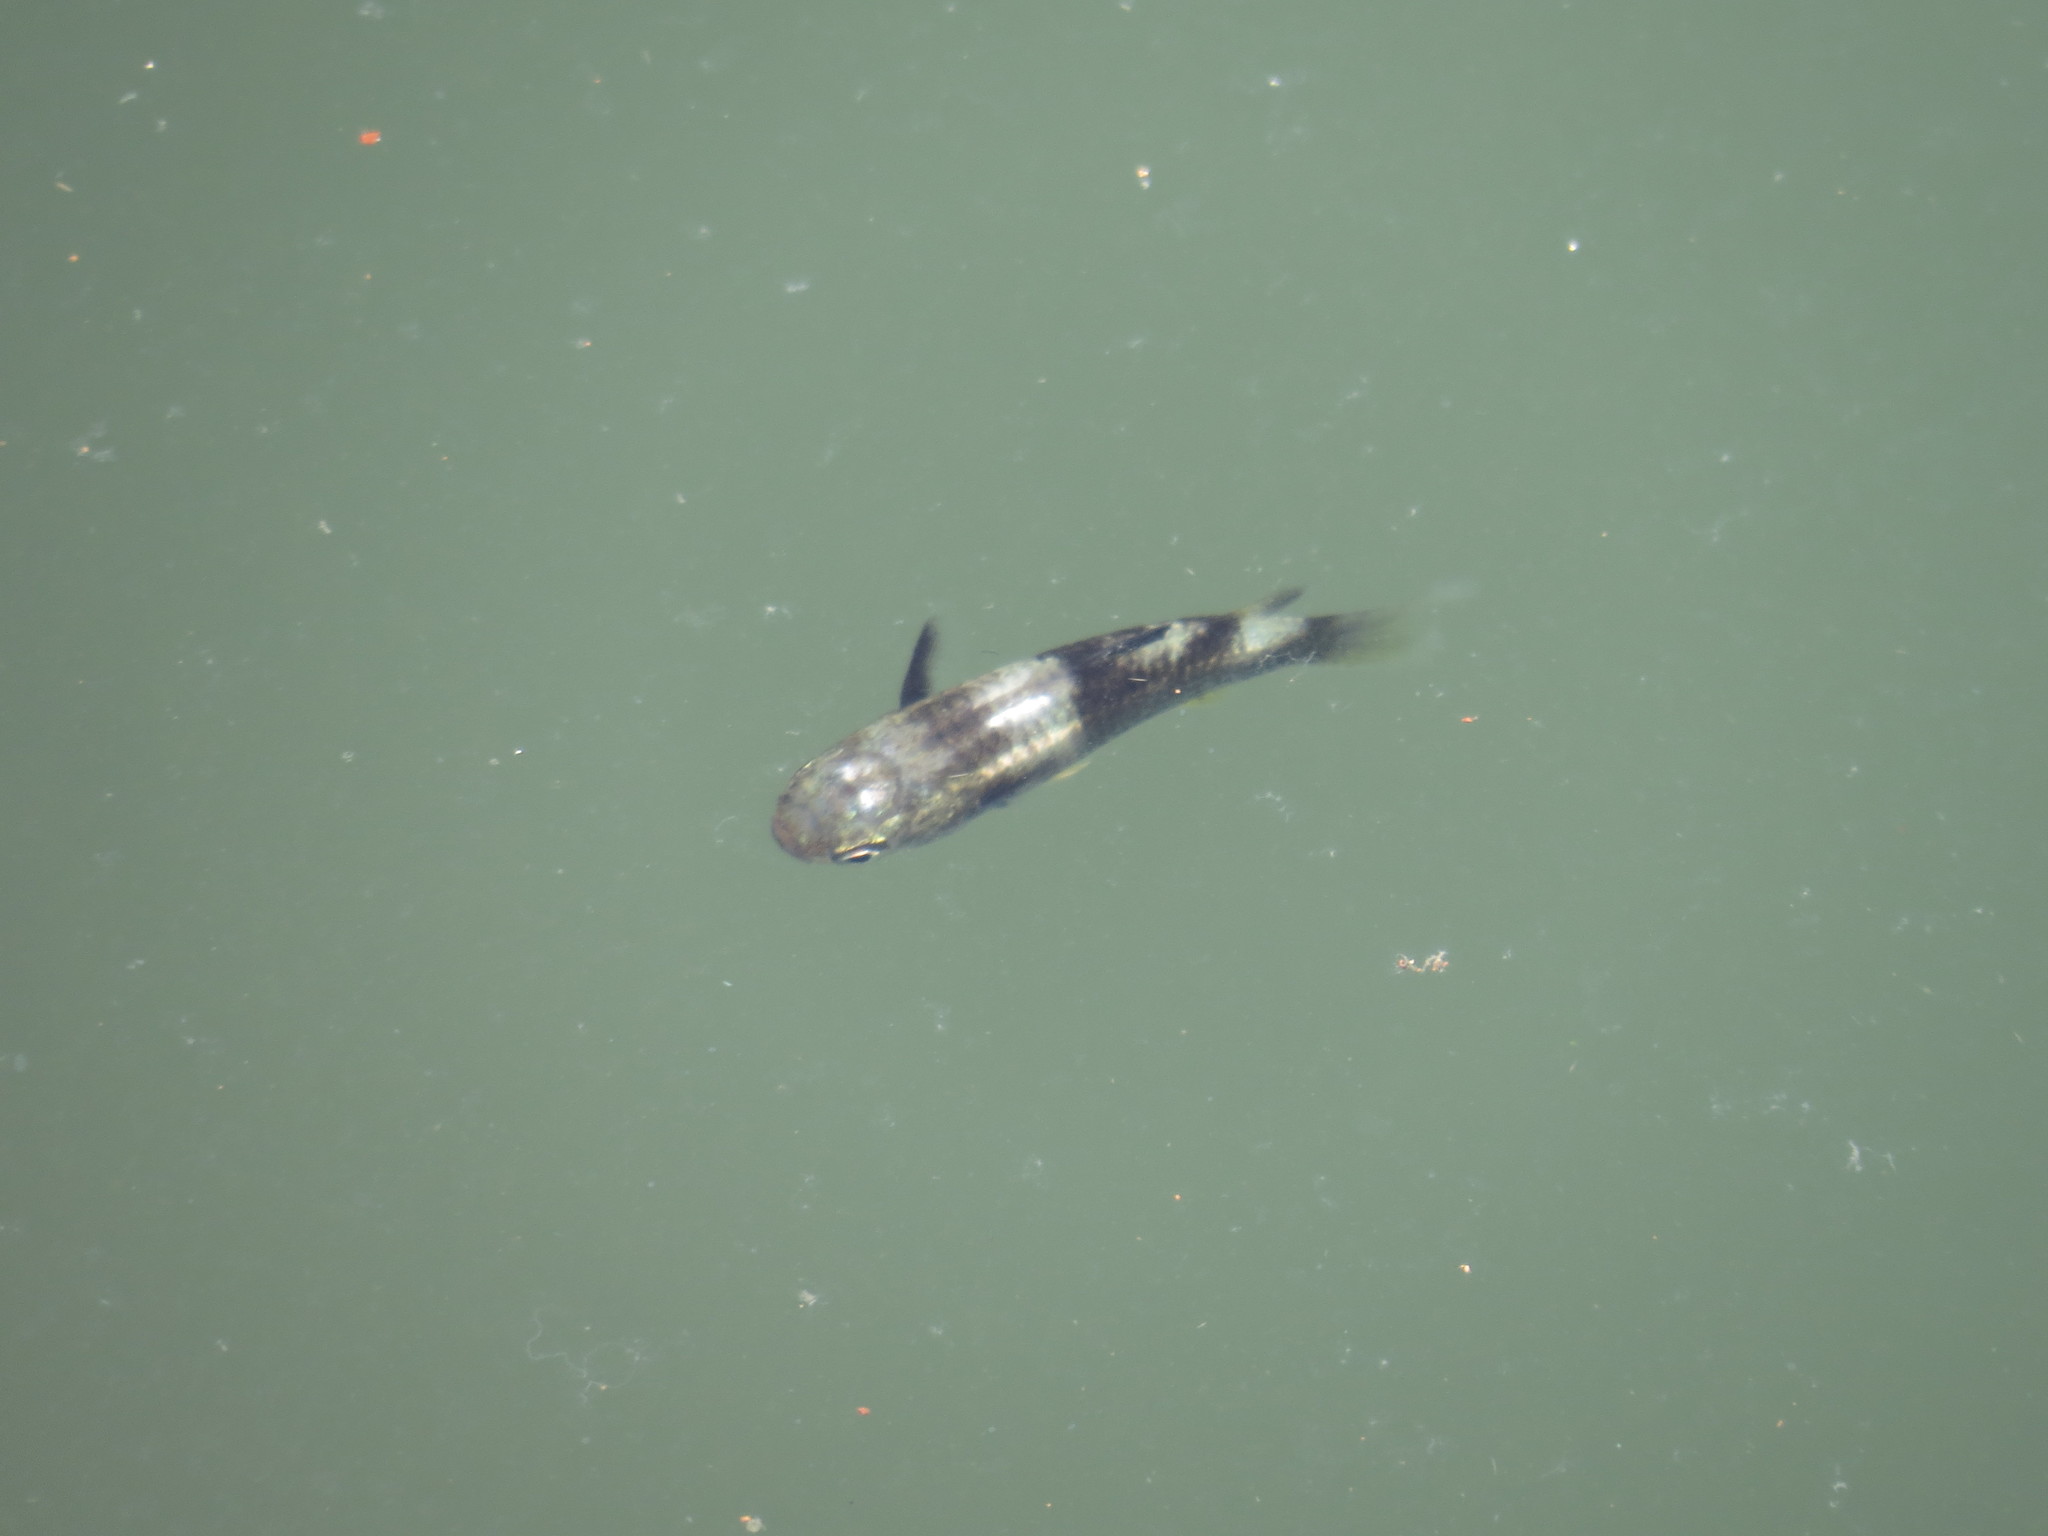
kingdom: Animalia
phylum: Chordata
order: Mugiliformes
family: Mugilidae
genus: Ellochelon
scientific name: Ellochelon vaigiensis
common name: Squaretail mullet
